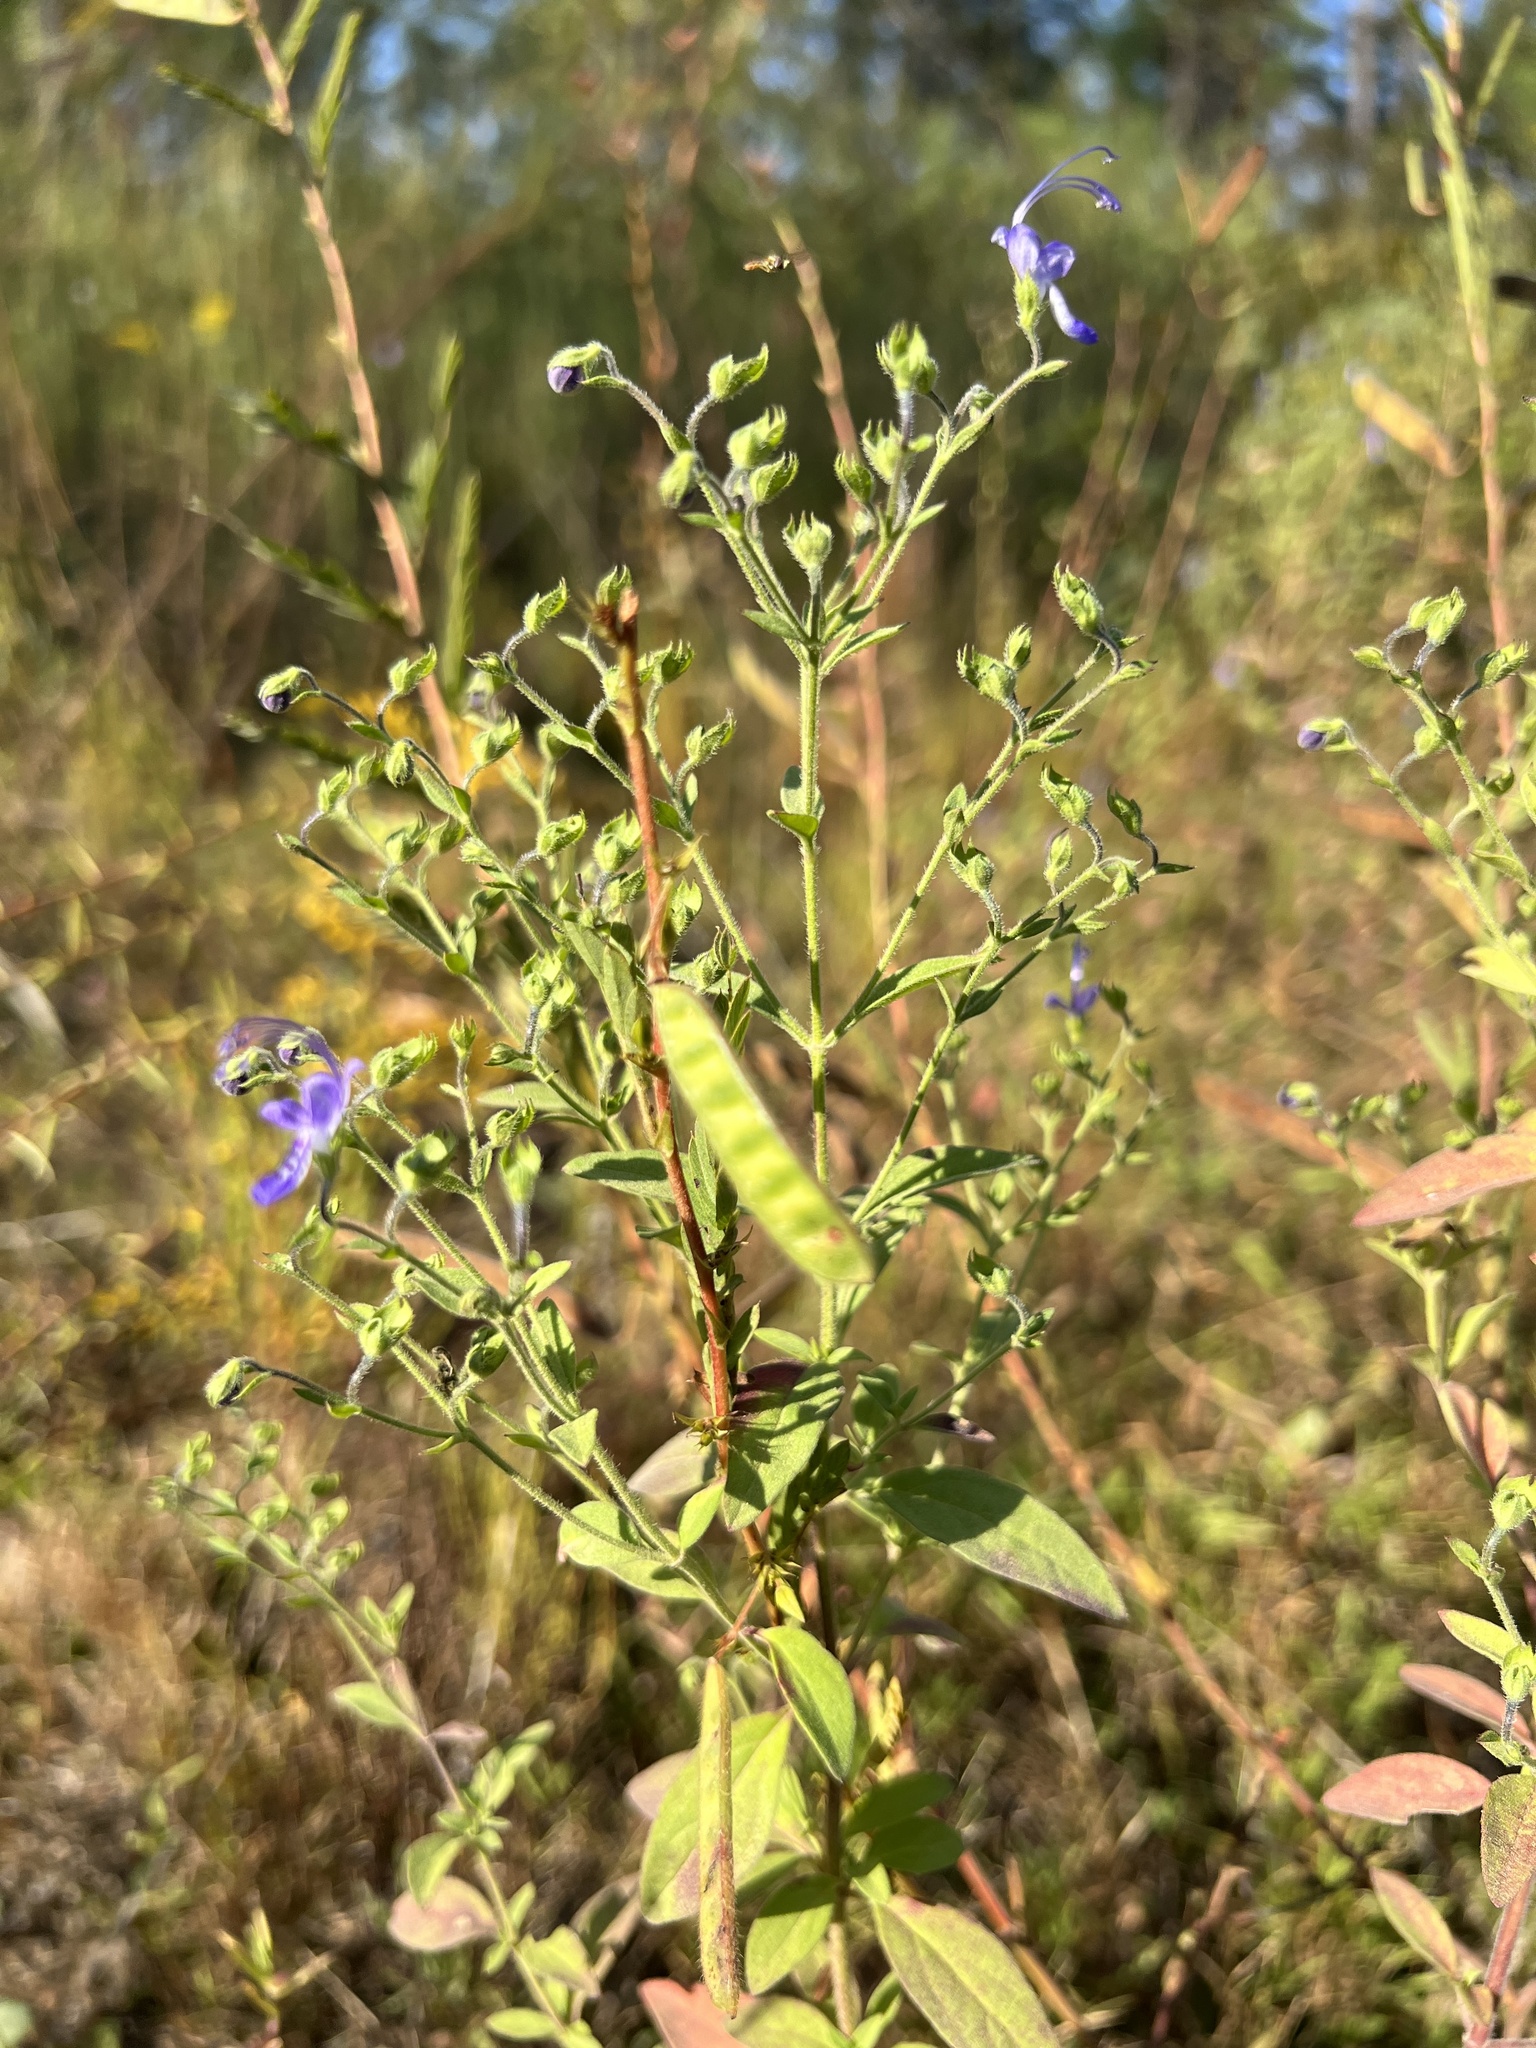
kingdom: Plantae
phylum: Tracheophyta
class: Magnoliopsida
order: Lamiales
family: Lamiaceae
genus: Trichostema
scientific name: Trichostema dichotomum
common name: Bastard pennyroyal
